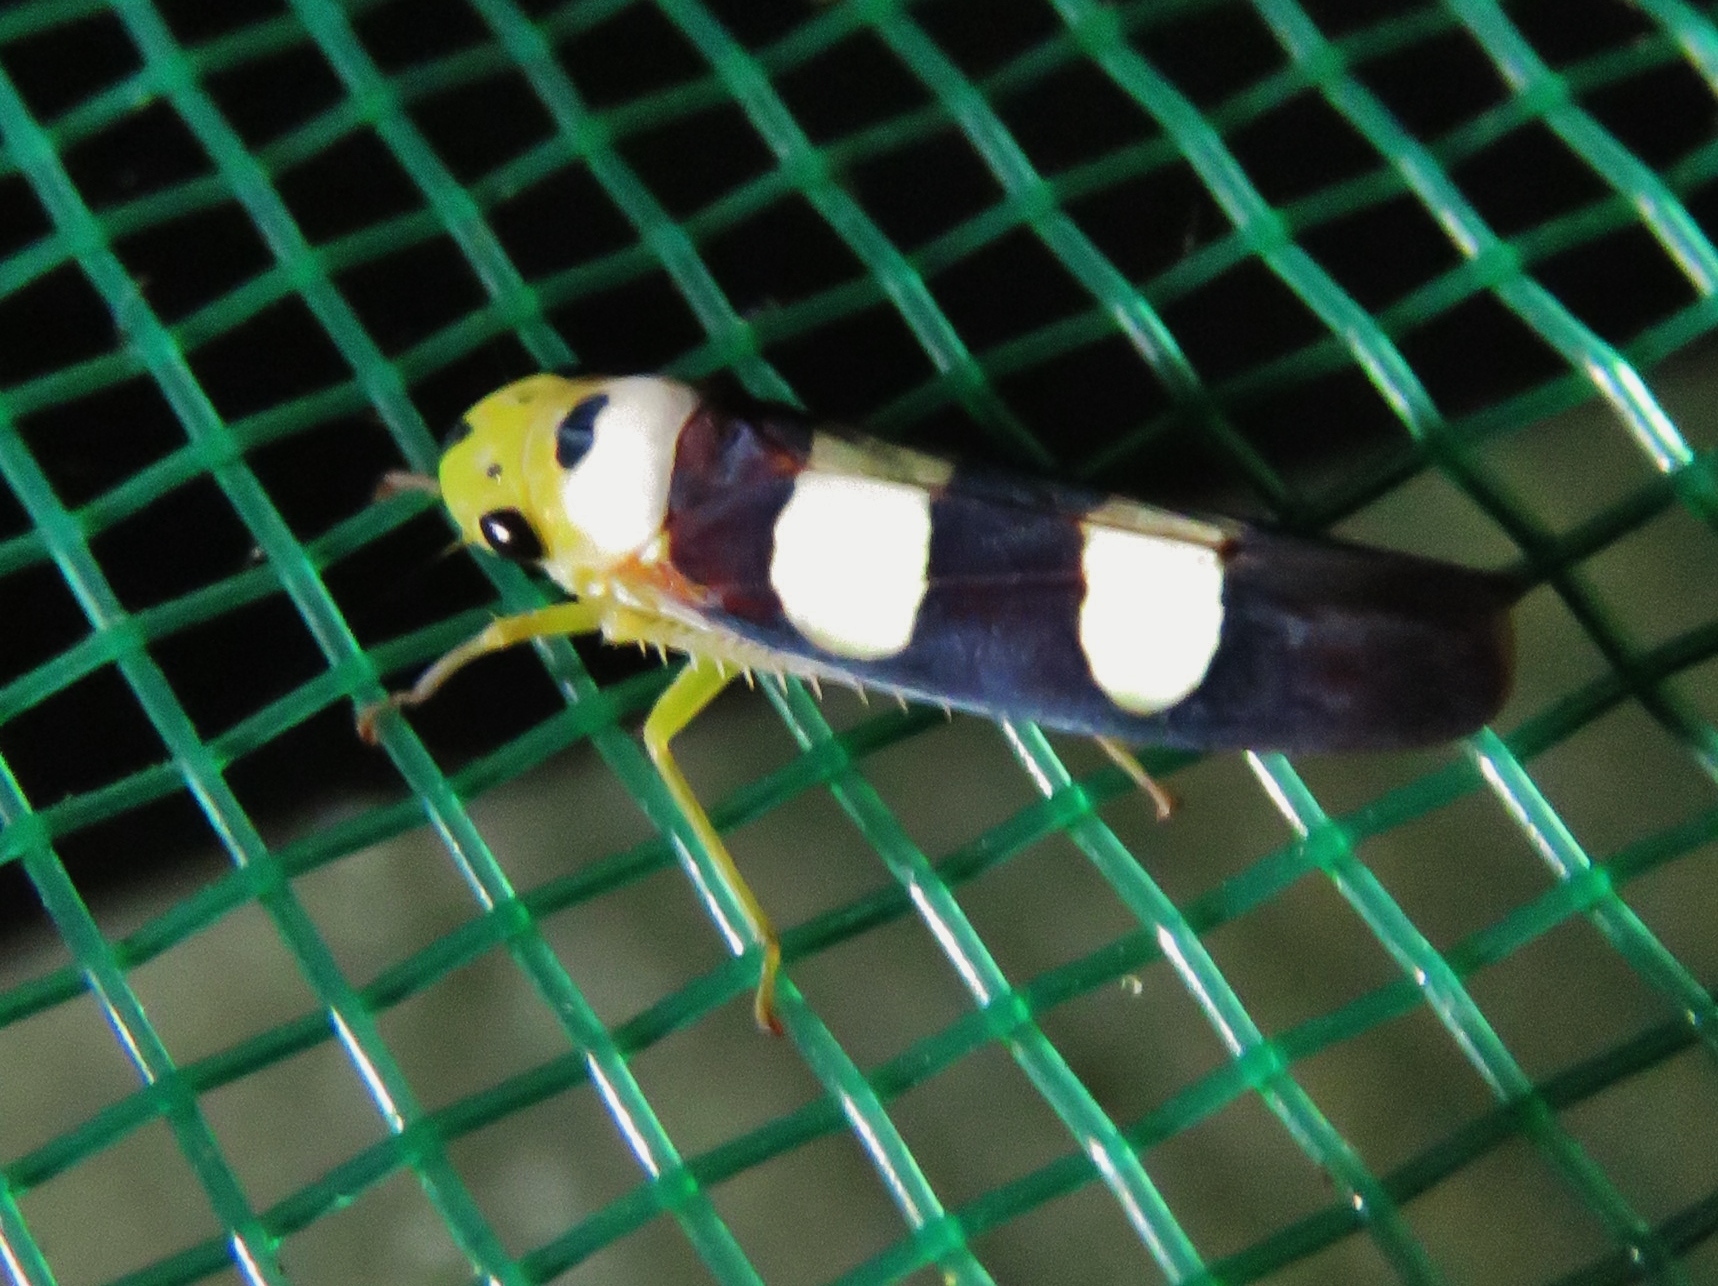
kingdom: Animalia
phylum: Arthropoda
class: Insecta
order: Hemiptera
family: Cicadellidae
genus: Tettisama
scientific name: Tettisama bisellata
